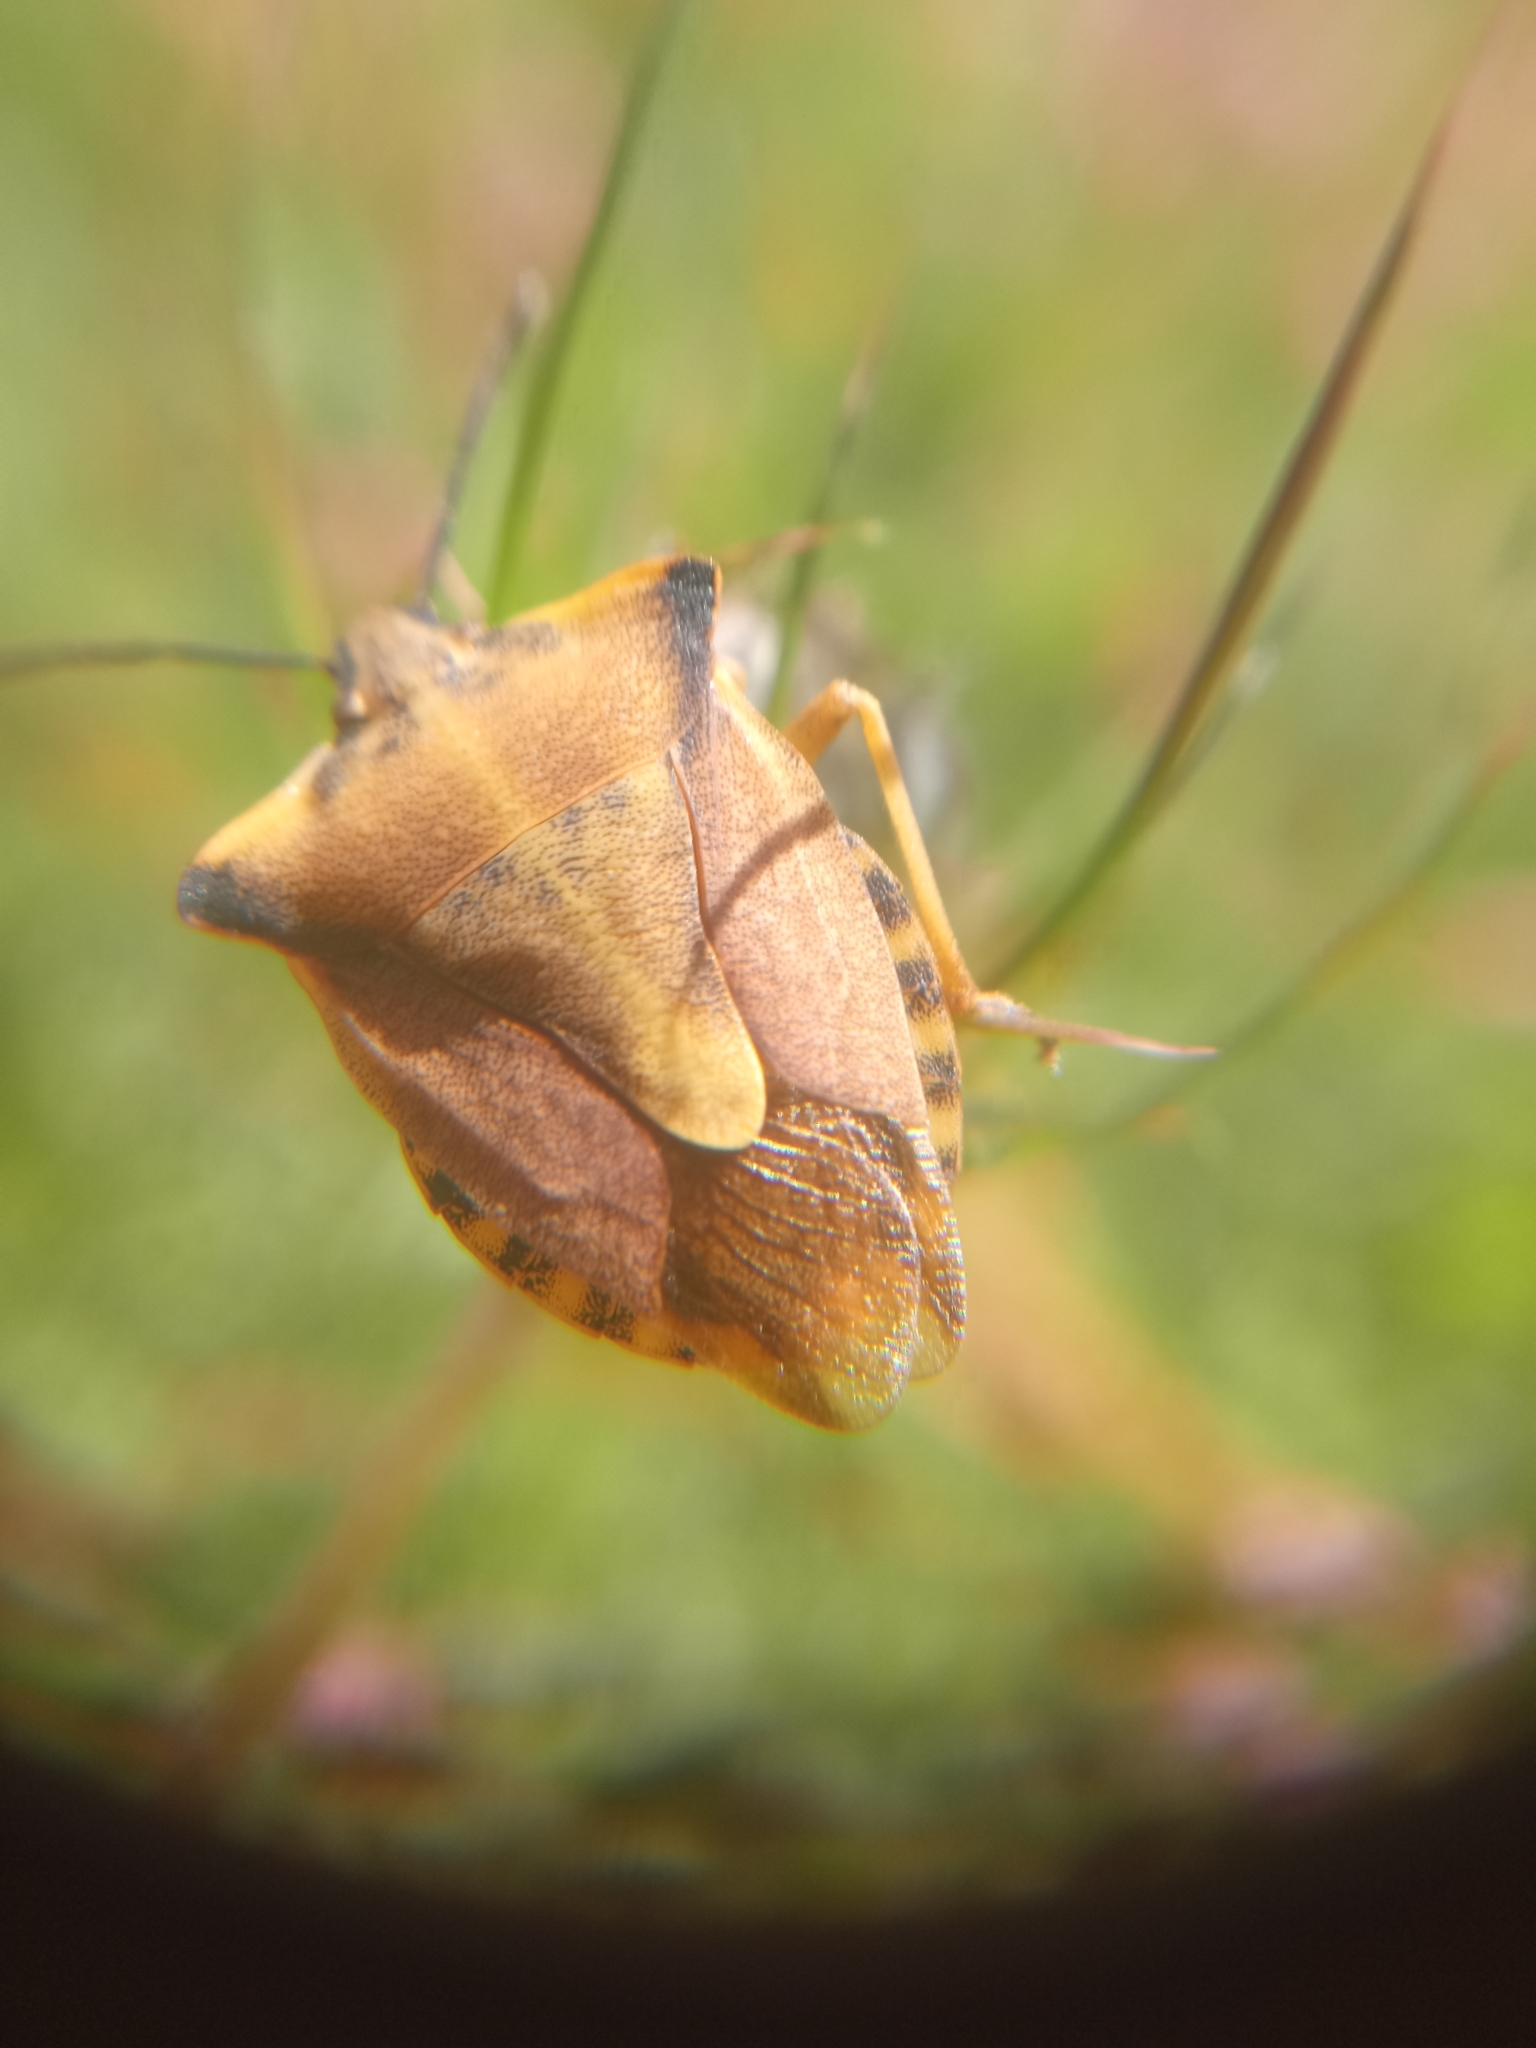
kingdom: Animalia
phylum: Arthropoda
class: Insecta
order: Hemiptera
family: Pentatomidae
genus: Carpocoris
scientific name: Carpocoris fuscispinus
